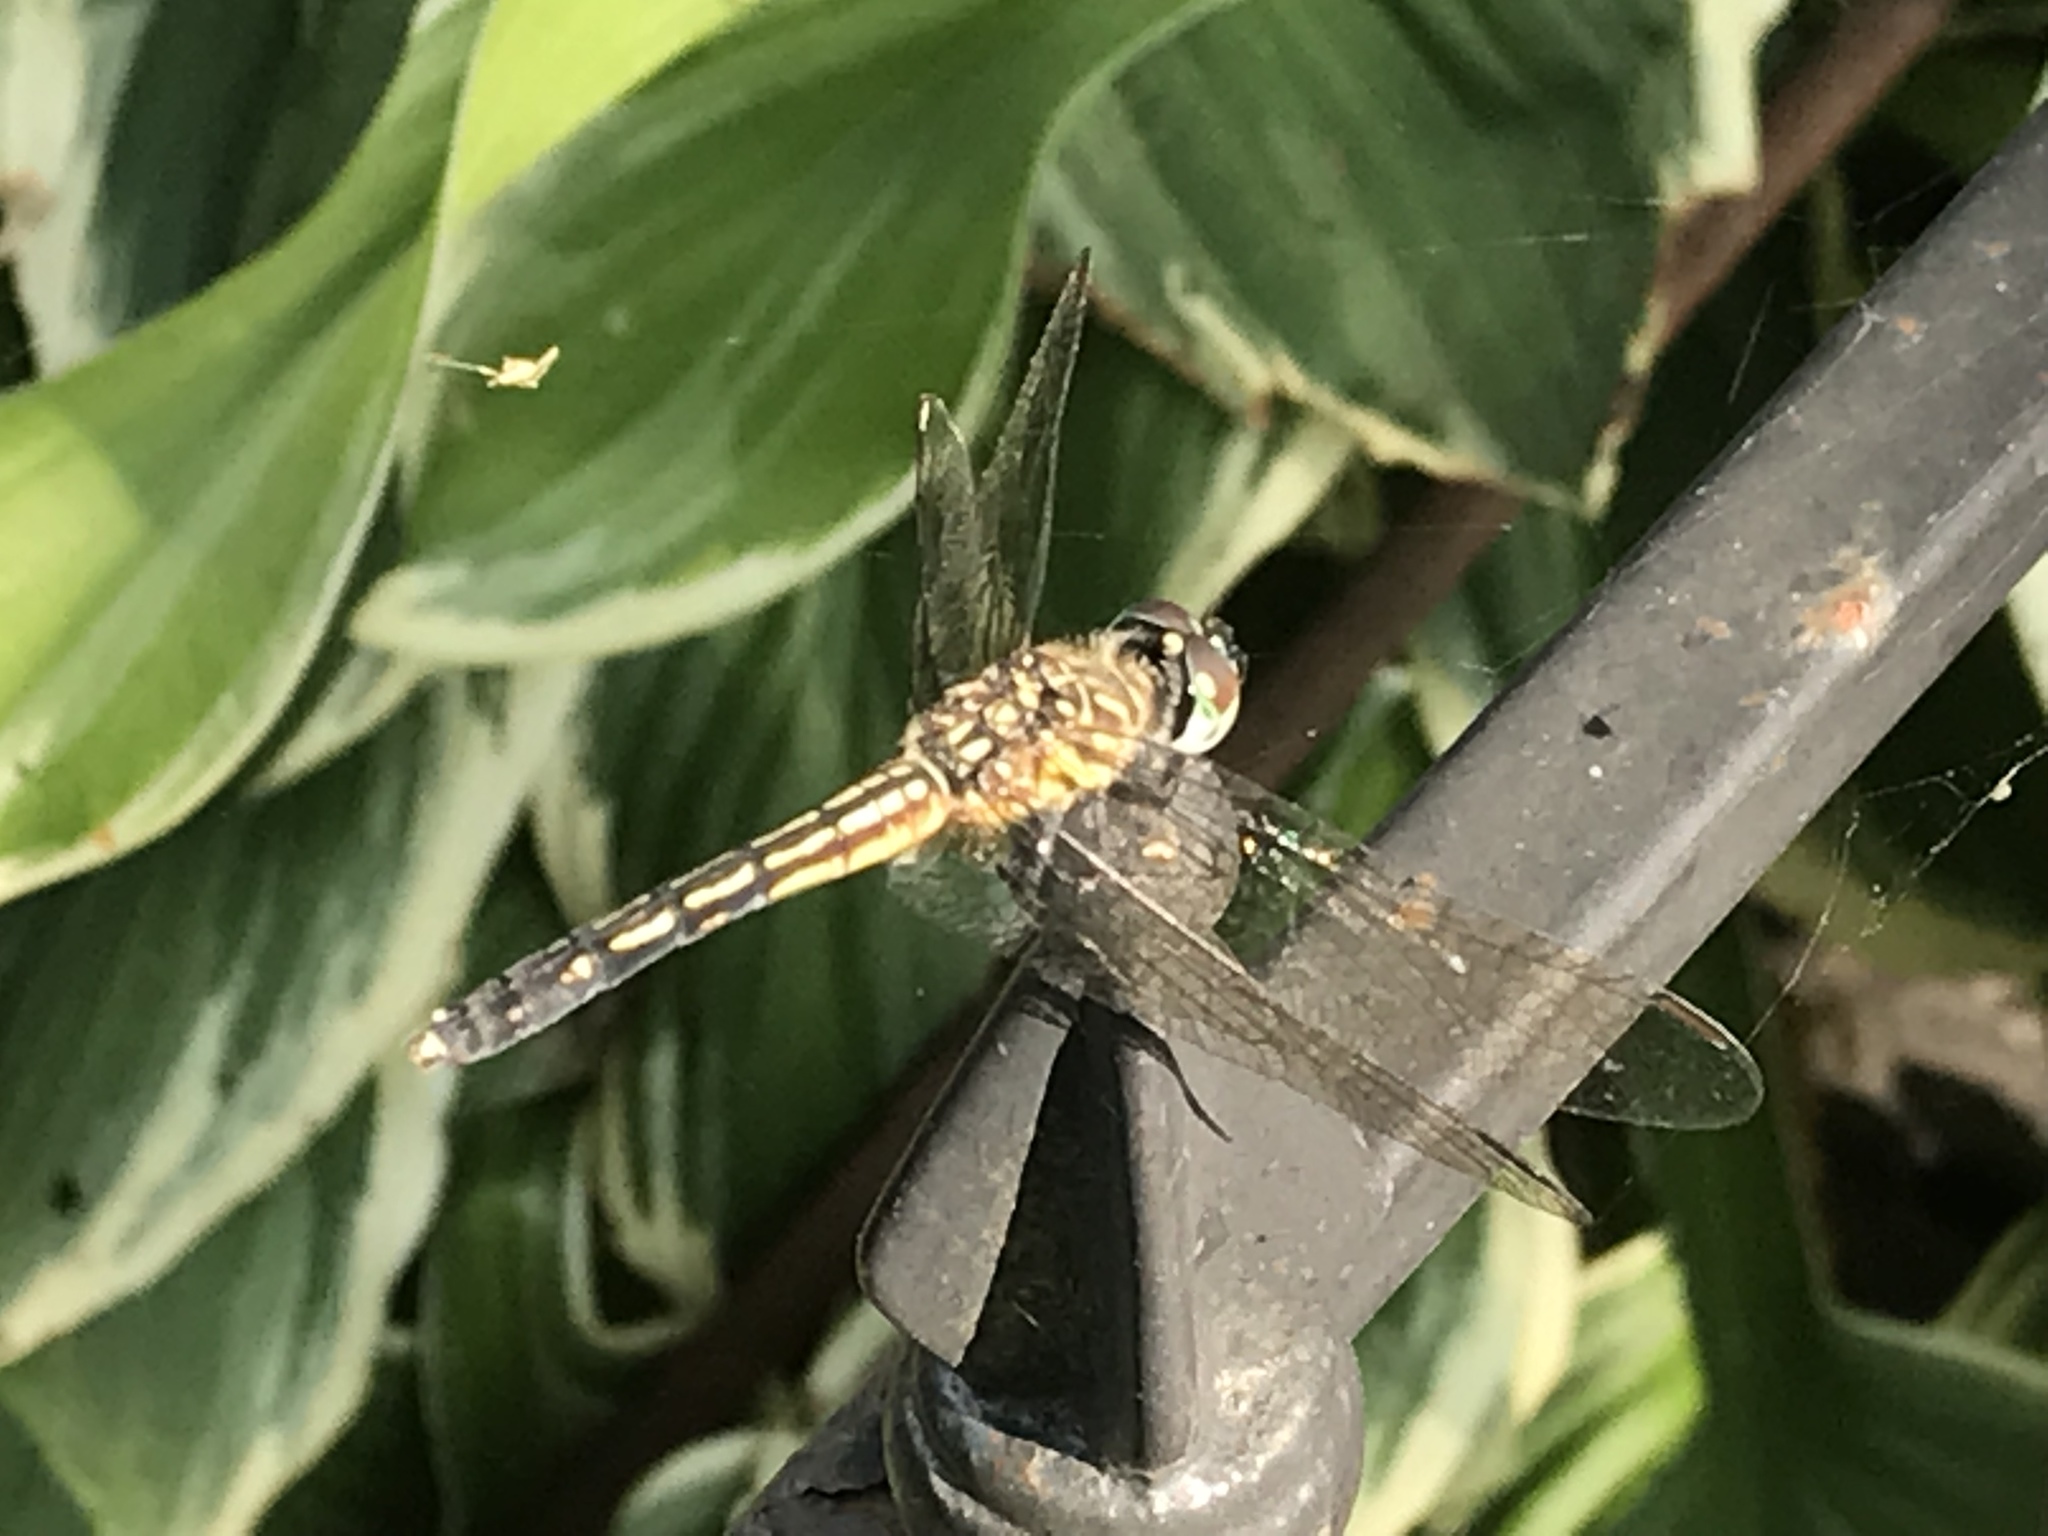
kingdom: Animalia
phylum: Arthropoda
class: Insecta
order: Odonata
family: Libellulidae
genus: Pachydiplax
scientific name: Pachydiplax longipennis
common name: Blue dasher
